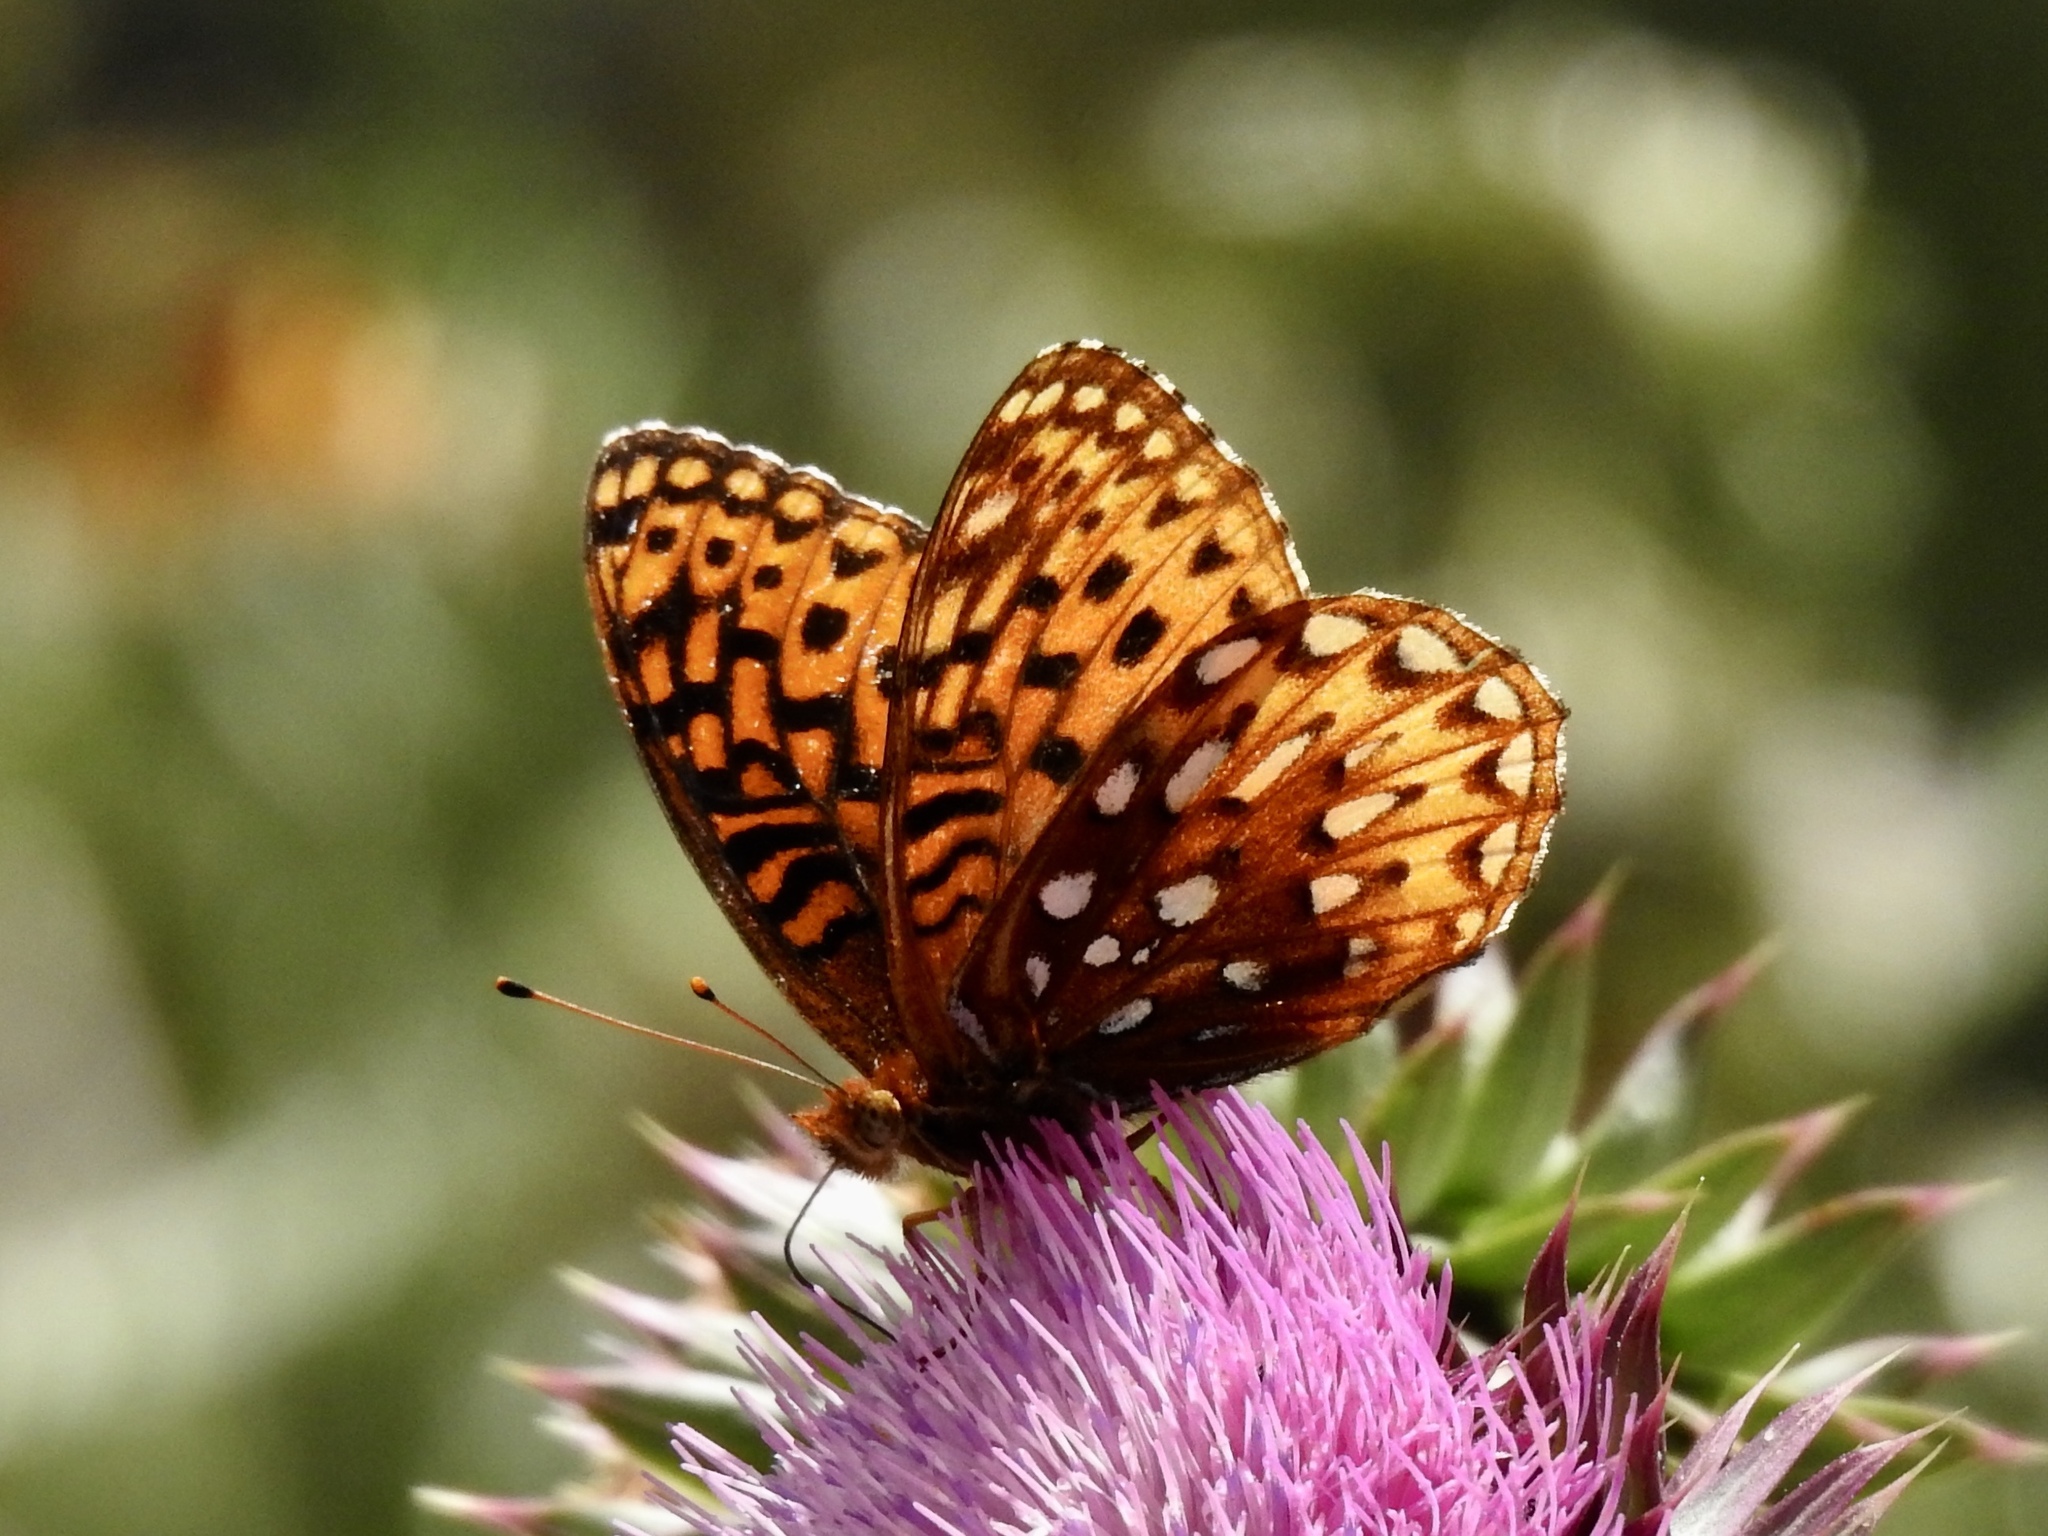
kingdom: Animalia
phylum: Arthropoda
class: Insecta
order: Lepidoptera
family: Nymphalidae
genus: Speyeria
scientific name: Speyeria atlantis
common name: Atlantis fritillary
